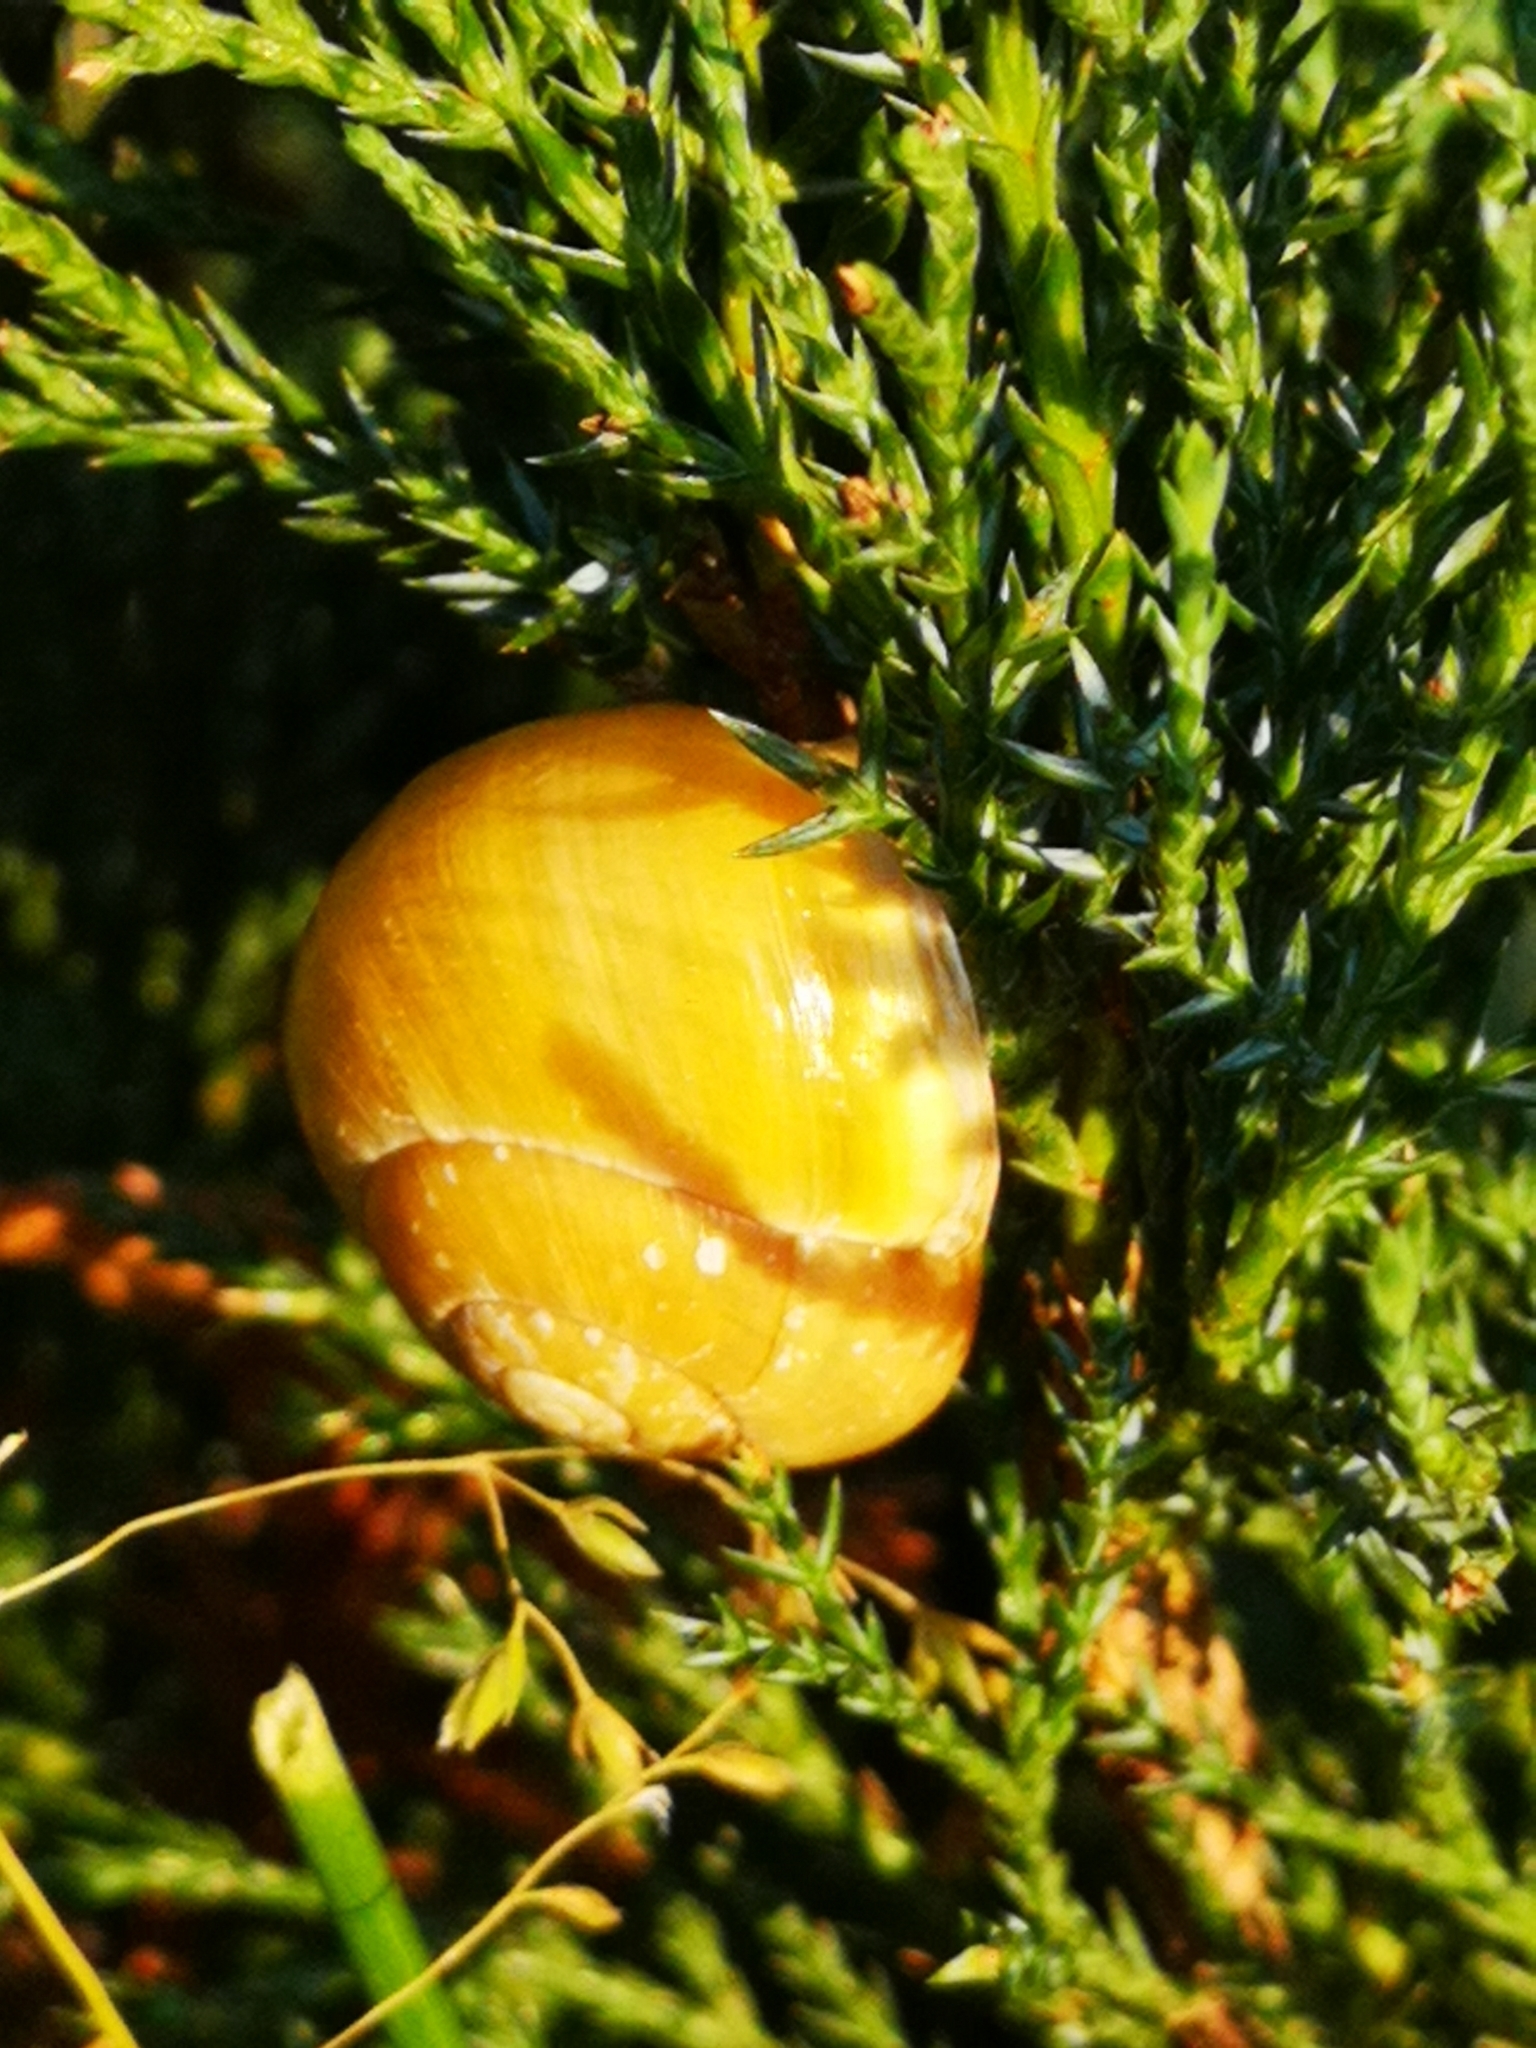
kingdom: Animalia
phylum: Mollusca
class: Gastropoda
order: Stylommatophora
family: Helicidae
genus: Cepaea
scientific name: Cepaea
